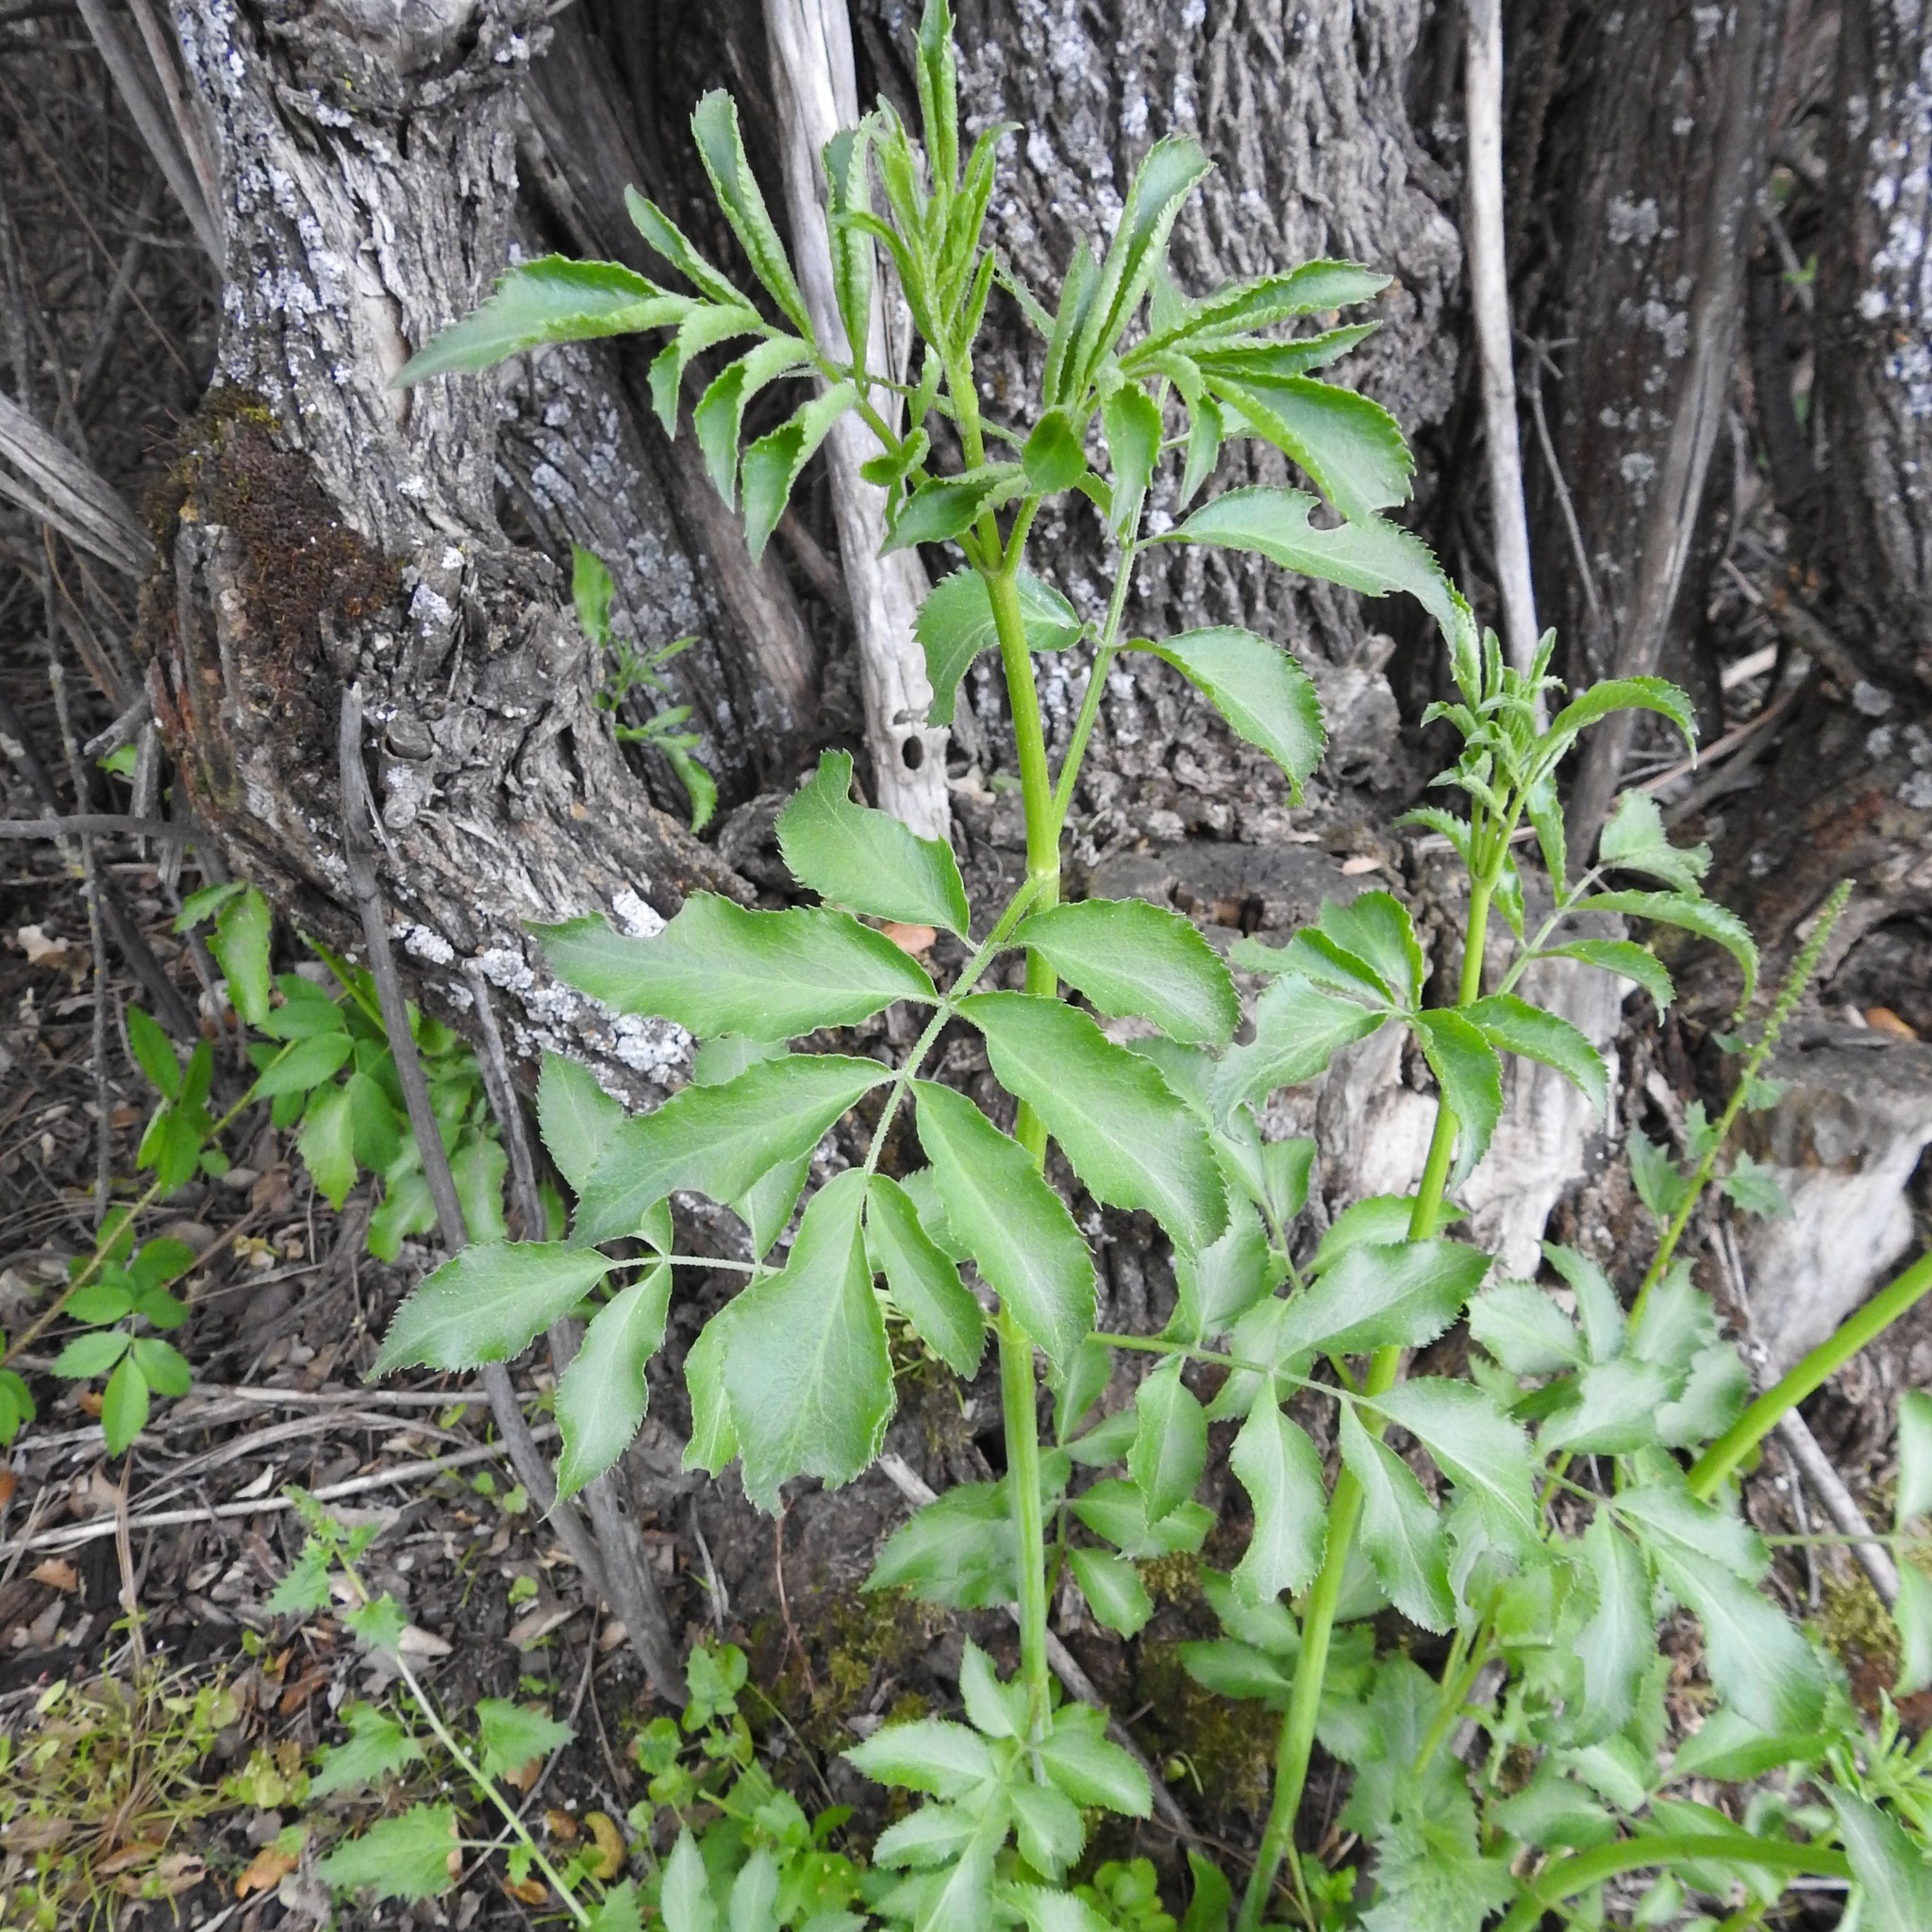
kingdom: Plantae
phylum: Tracheophyta
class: Magnoliopsida
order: Dipsacales
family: Viburnaceae
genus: Sambucus
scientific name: Sambucus cerulea
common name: Blue elder
